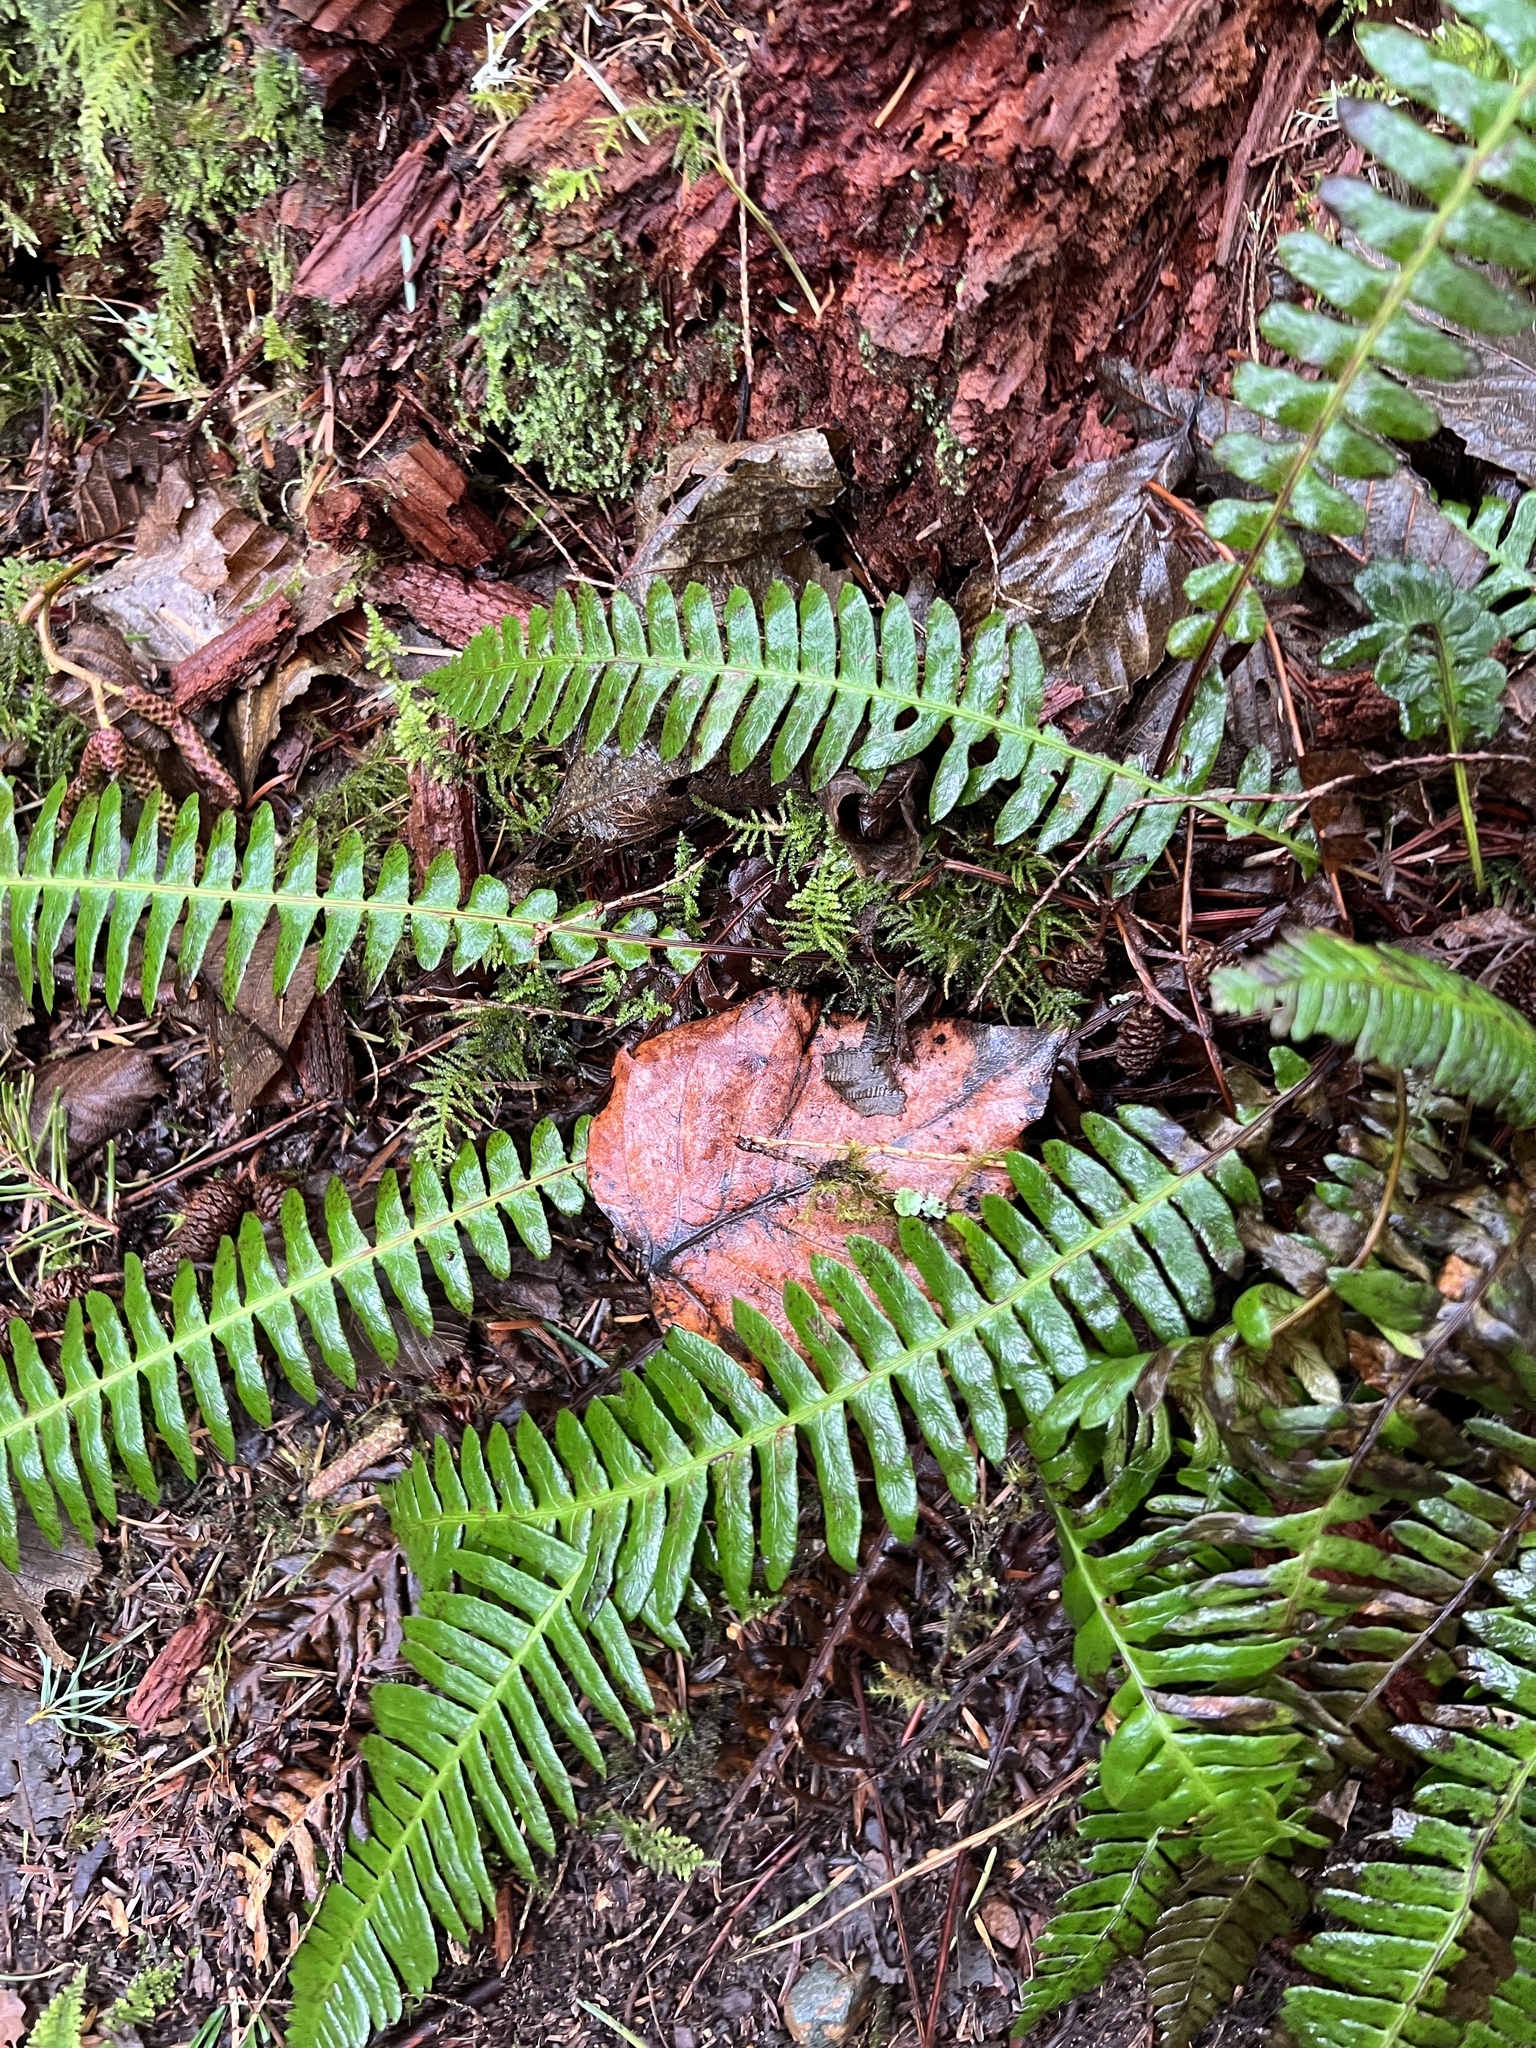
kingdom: Plantae
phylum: Tracheophyta
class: Polypodiopsida
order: Polypodiales
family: Blechnaceae
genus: Struthiopteris
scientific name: Struthiopteris spicant
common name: Deer fern
